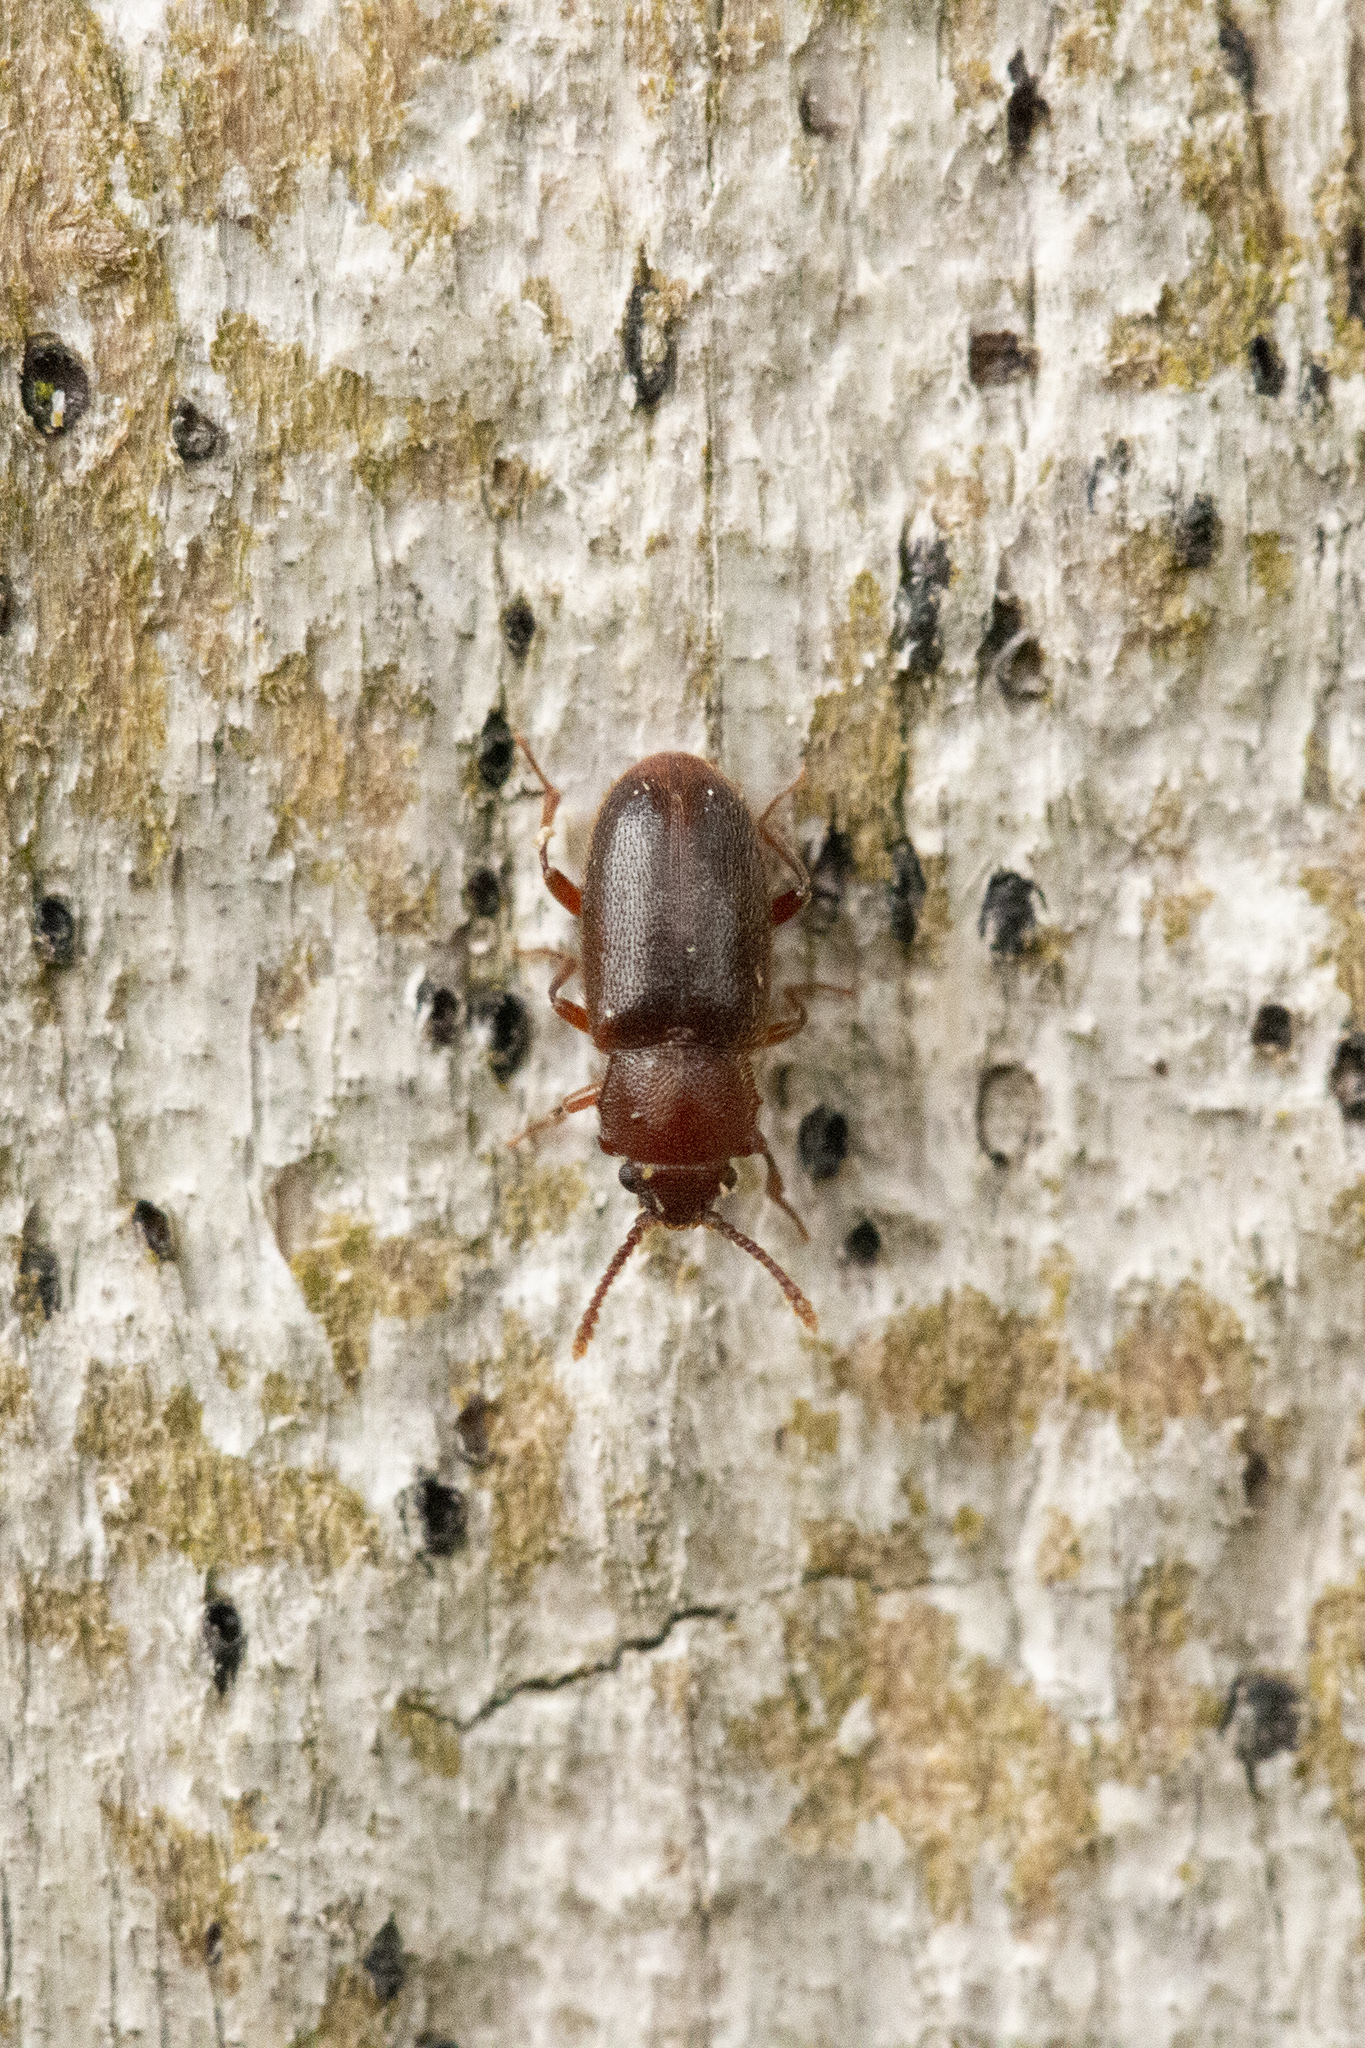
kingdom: Animalia
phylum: Arthropoda
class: Insecta
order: Coleoptera
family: Cryptophagidae
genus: Cryptophagus
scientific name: Cryptophagus populi
